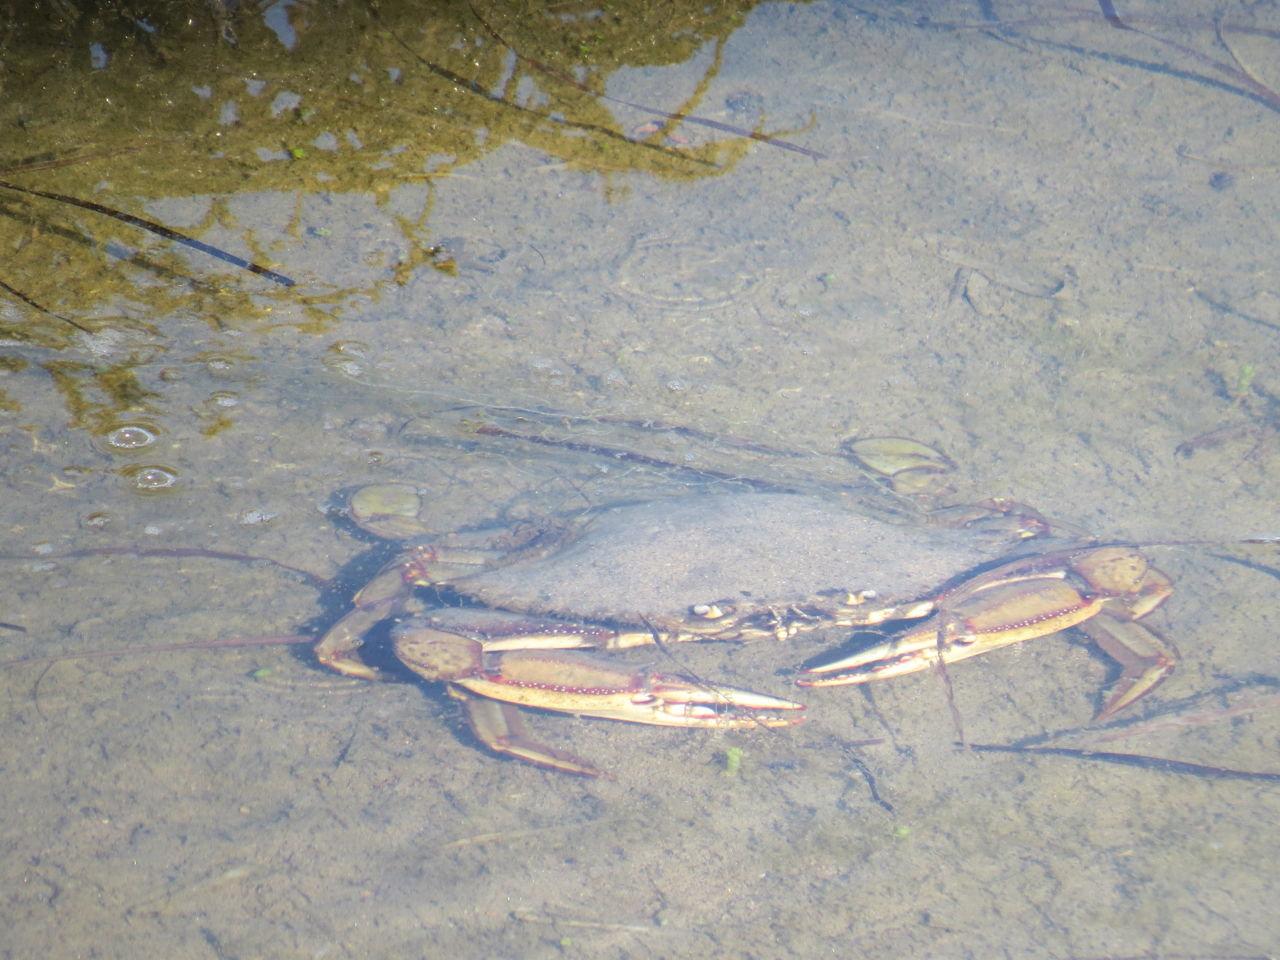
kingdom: Animalia
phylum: Arthropoda
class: Malacostraca
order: Decapoda
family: Portunidae
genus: Achelous
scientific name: Achelous xantusii
